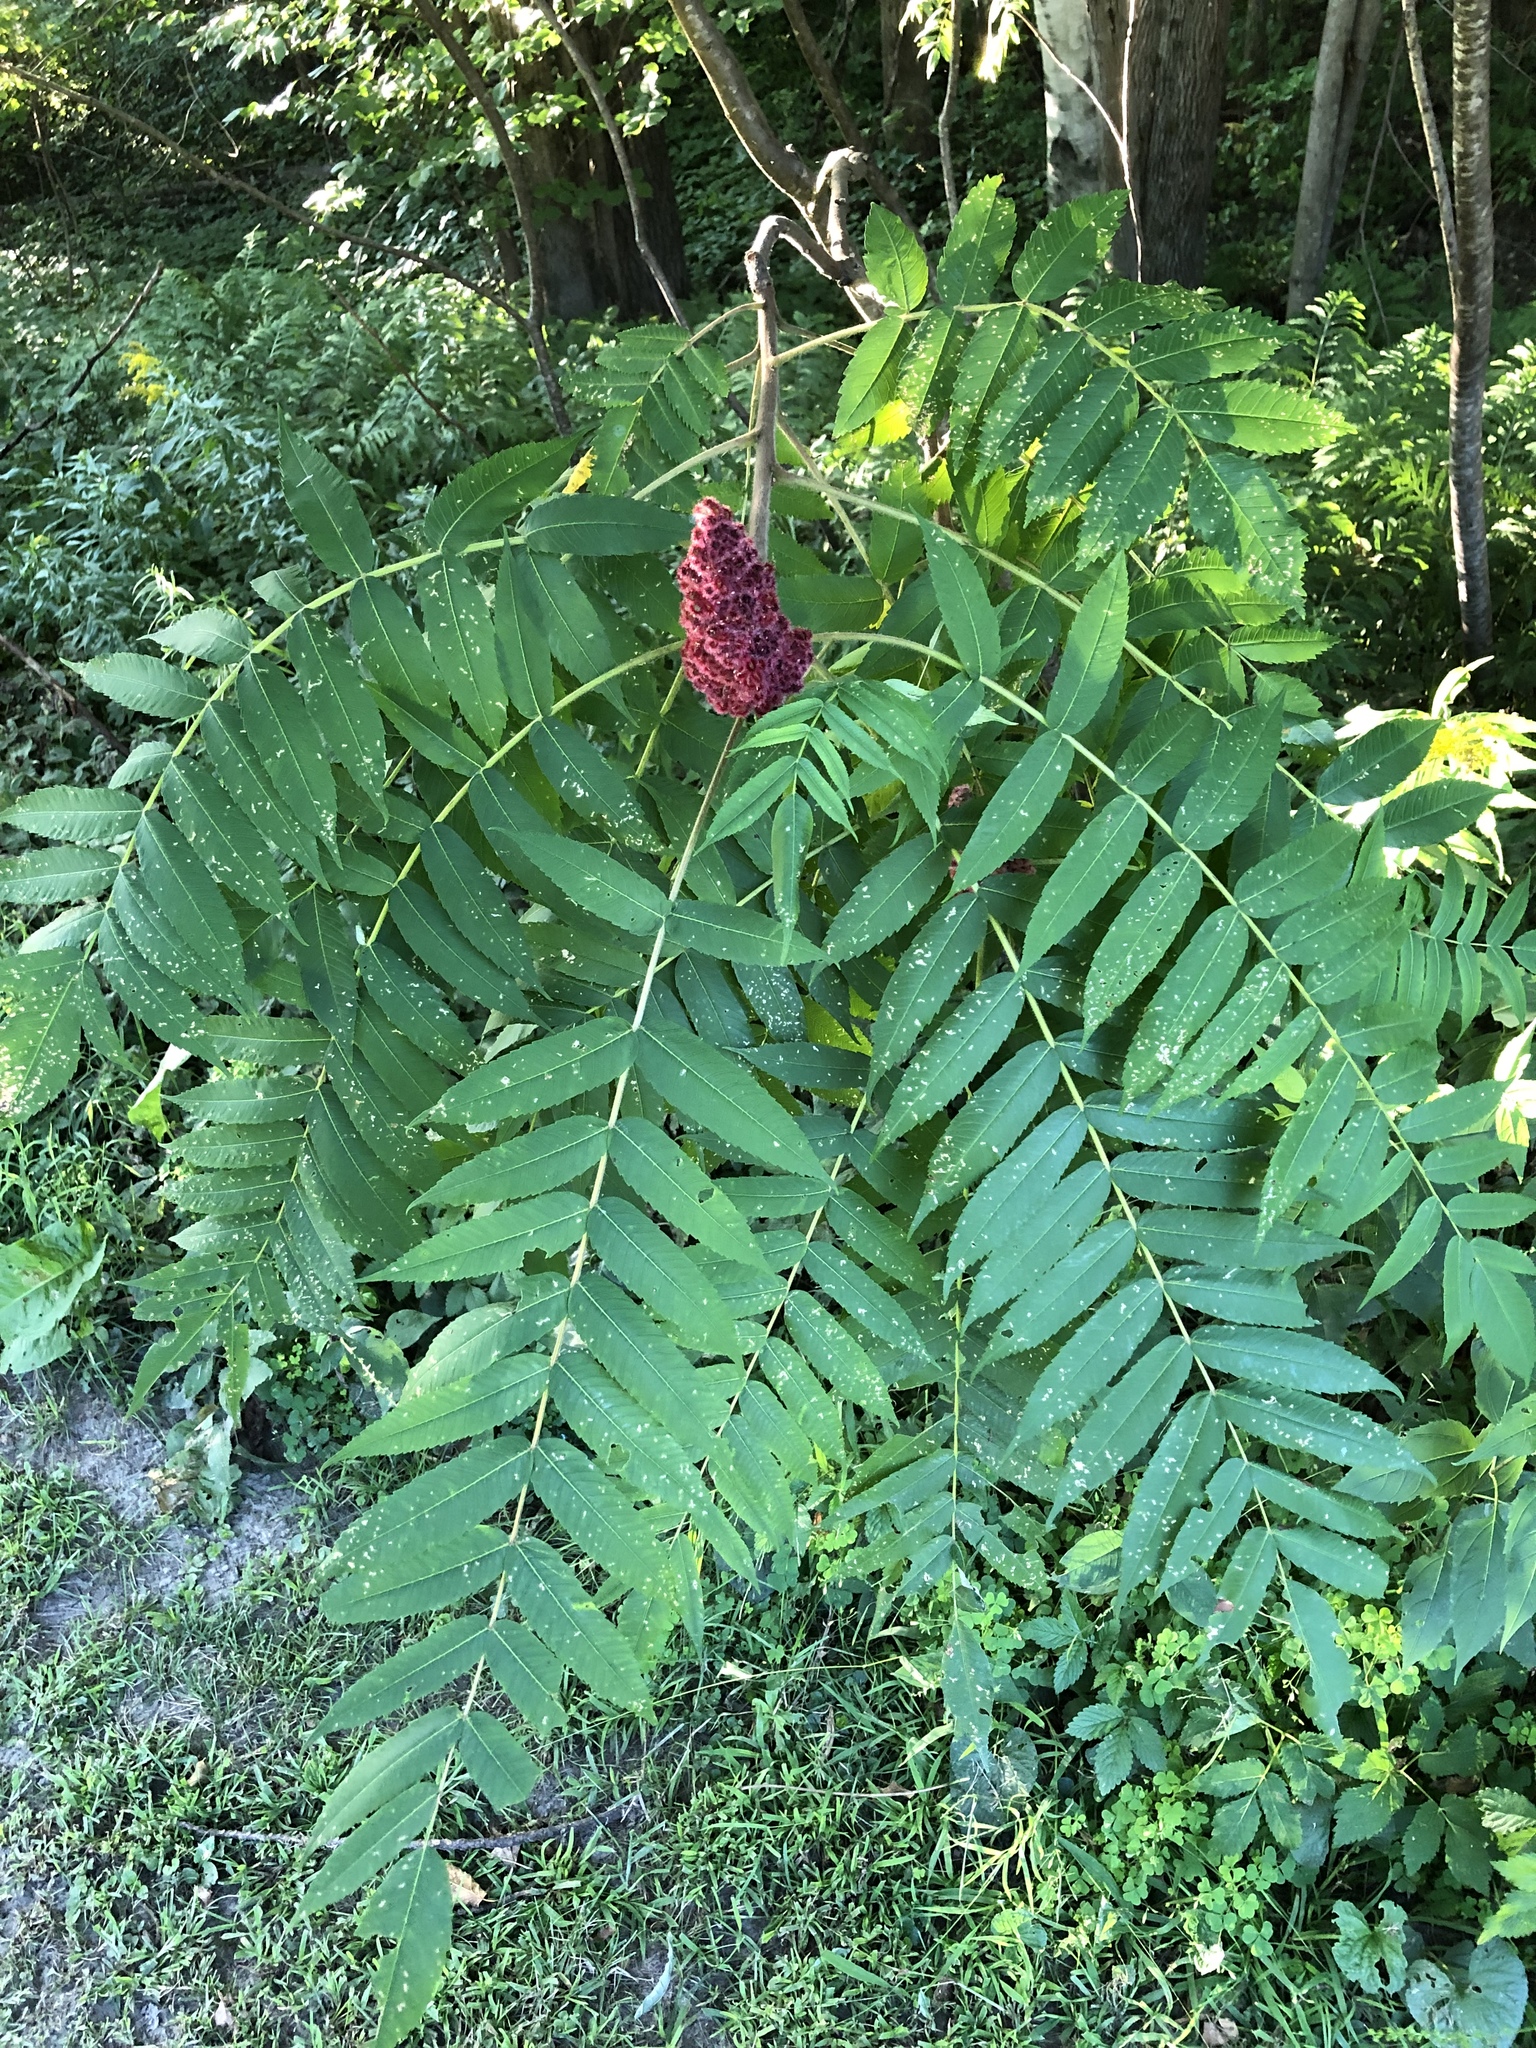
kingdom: Plantae
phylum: Tracheophyta
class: Magnoliopsida
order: Sapindales
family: Anacardiaceae
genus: Rhus
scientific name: Rhus typhina
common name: Staghorn sumac
